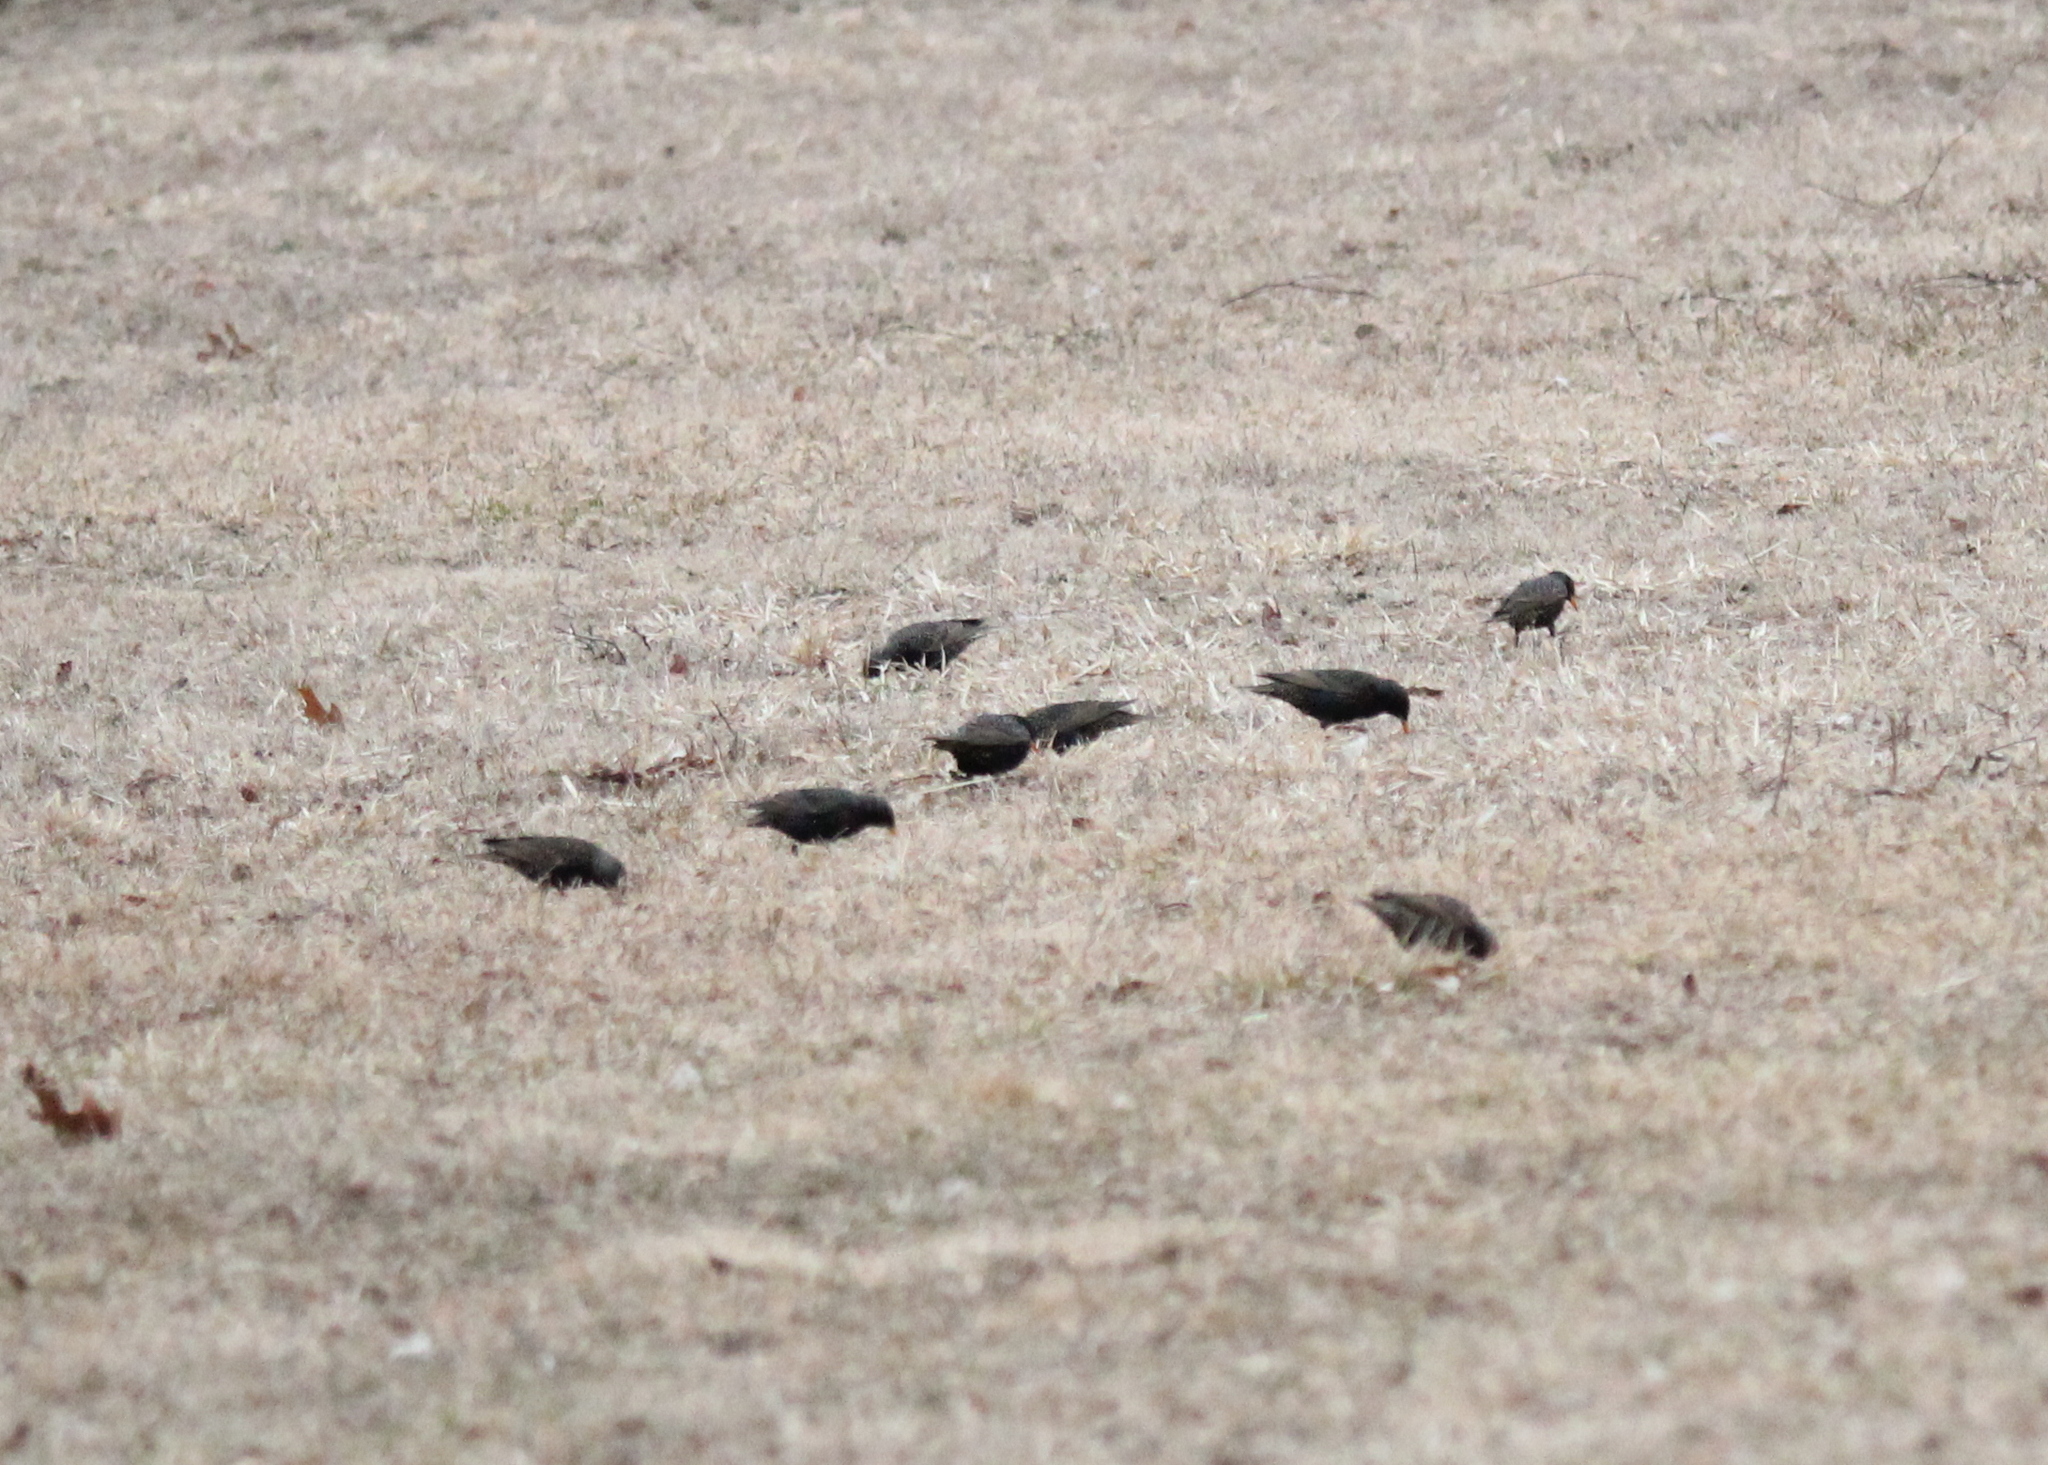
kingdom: Animalia
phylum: Chordata
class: Aves
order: Passeriformes
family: Sturnidae
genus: Sturnus
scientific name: Sturnus vulgaris
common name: Common starling
